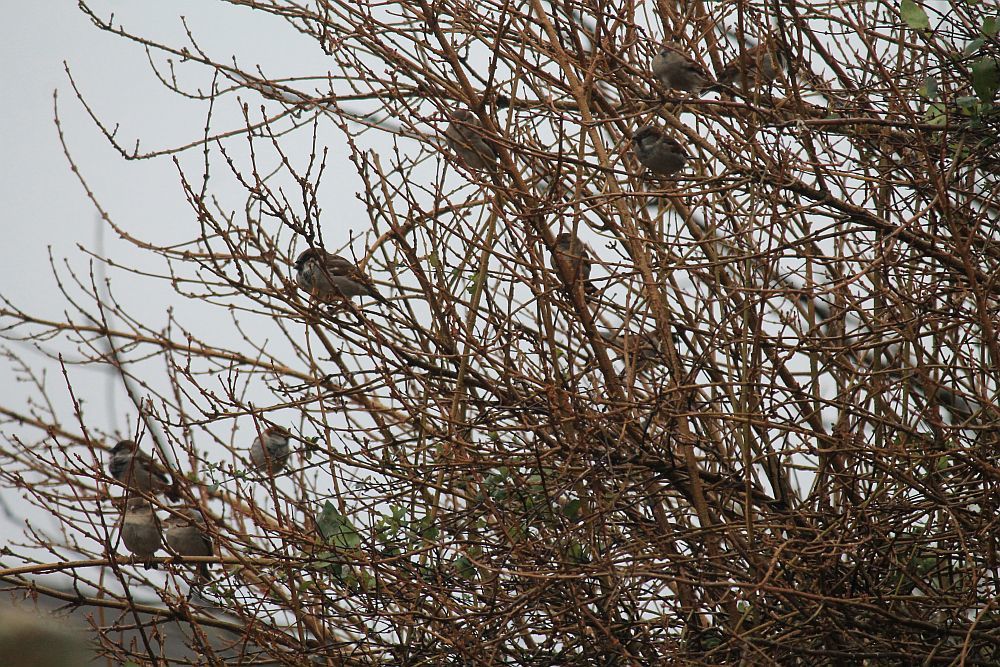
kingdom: Animalia
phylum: Chordata
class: Aves
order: Passeriformes
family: Passeridae
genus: Passer
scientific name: Passer domesticus
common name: House sparrow
